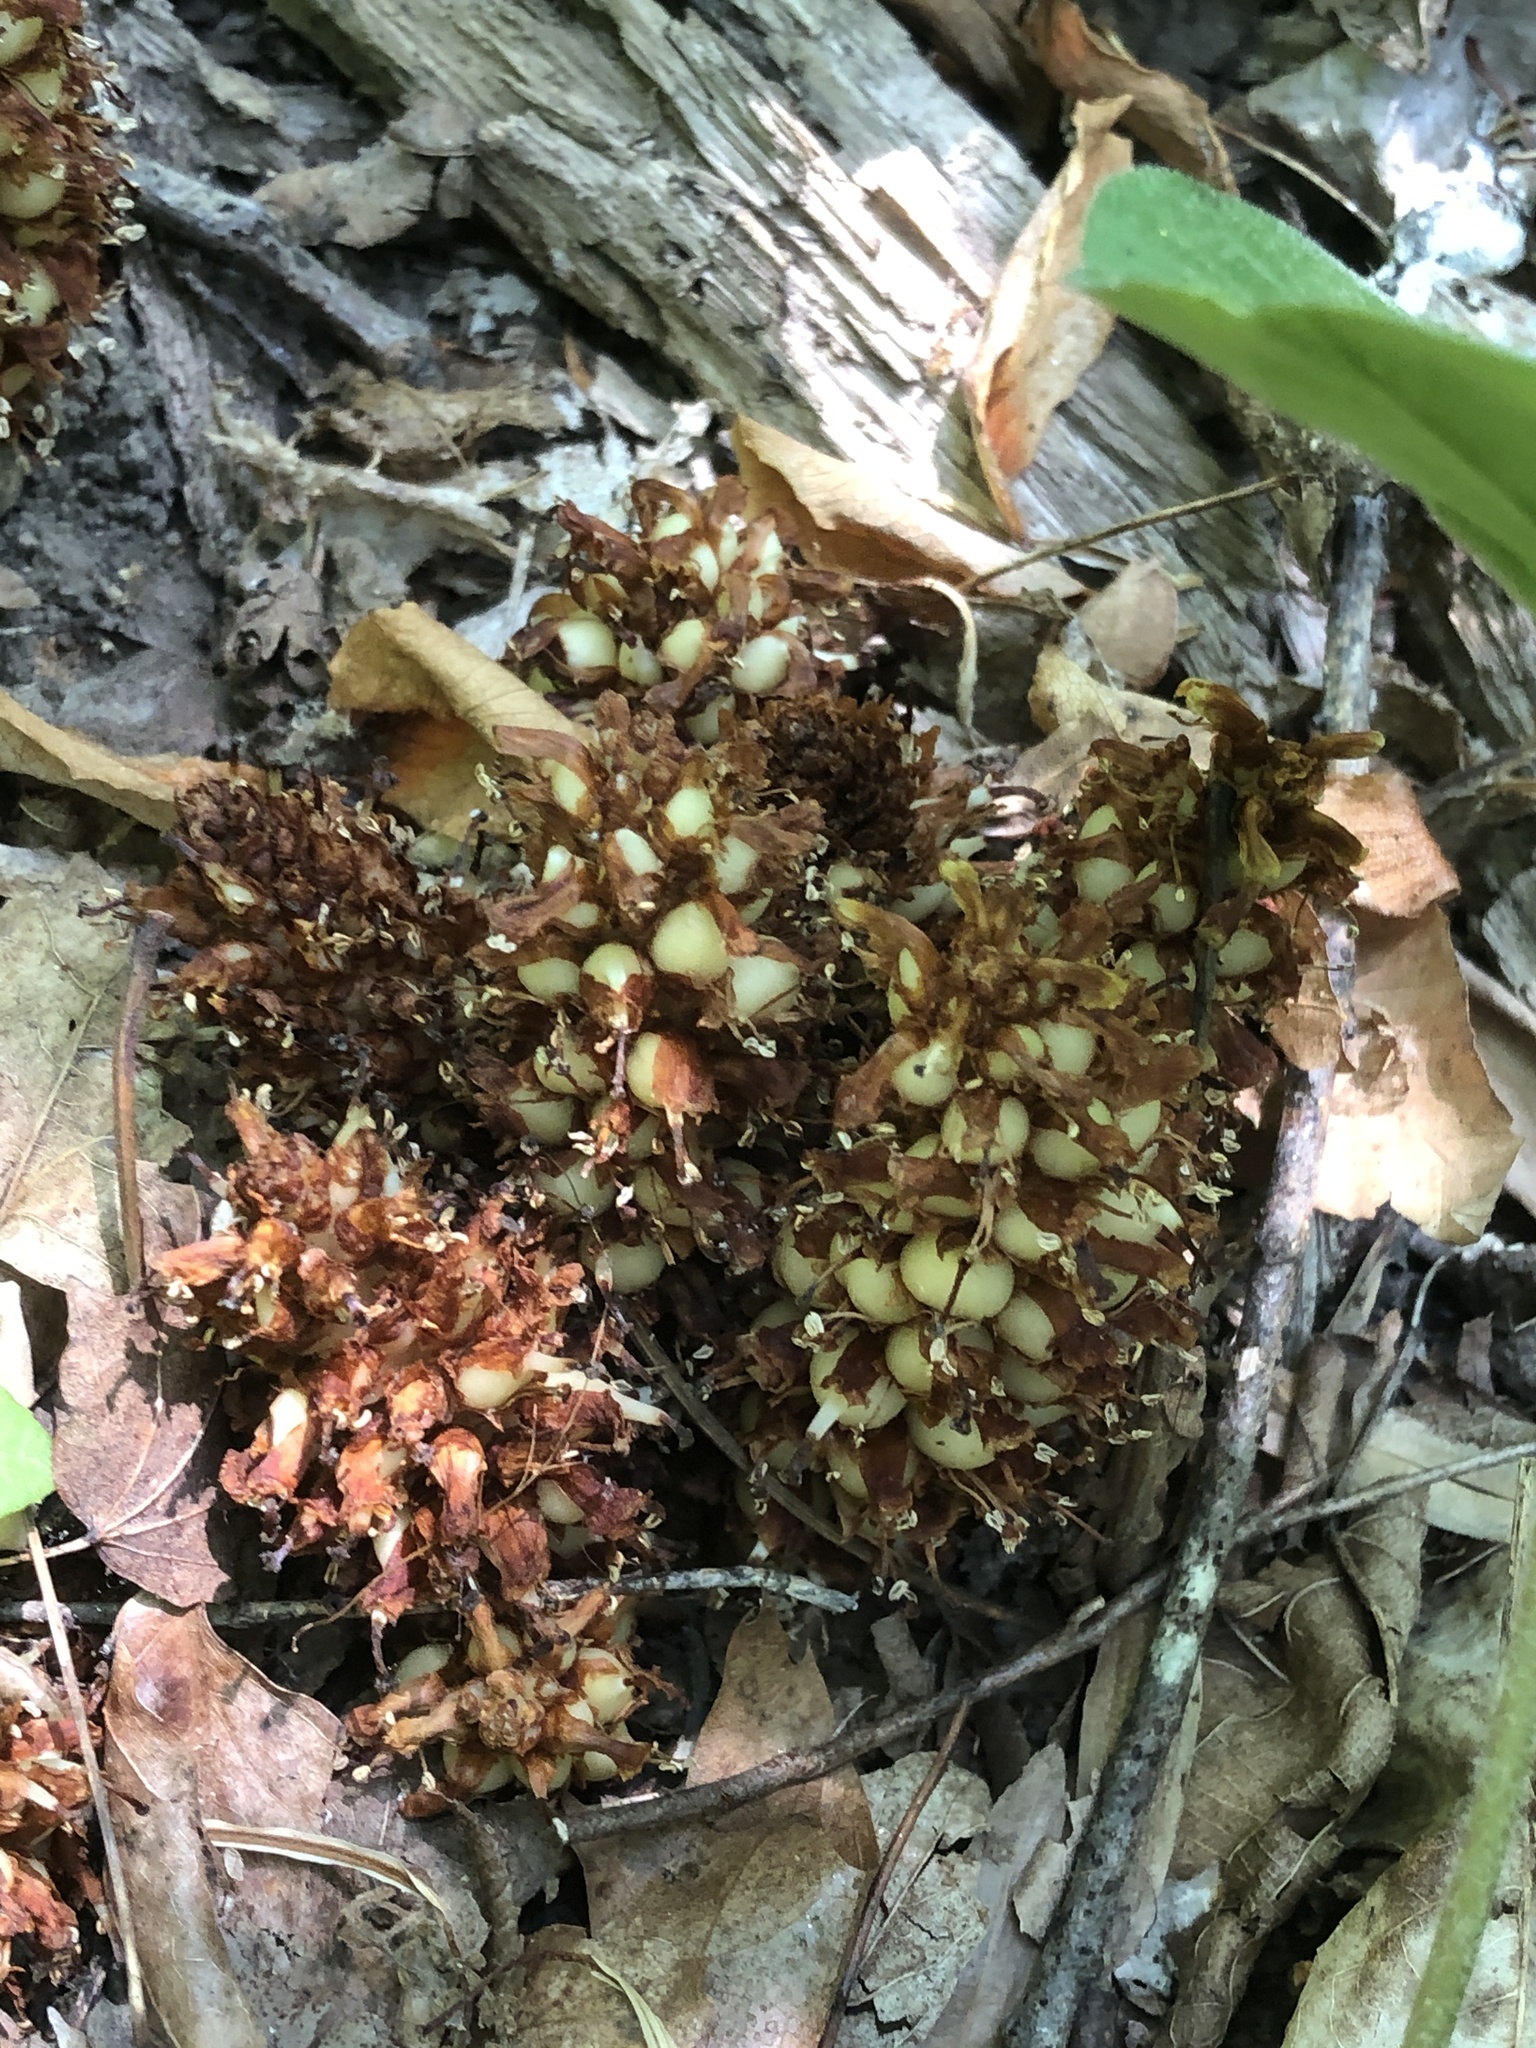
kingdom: Plantae
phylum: Tracheophyta
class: Magnoliopsida
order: Lamiales
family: Orobanchaceae
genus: Conopholis
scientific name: Conopholis americana
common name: American cancer-root
